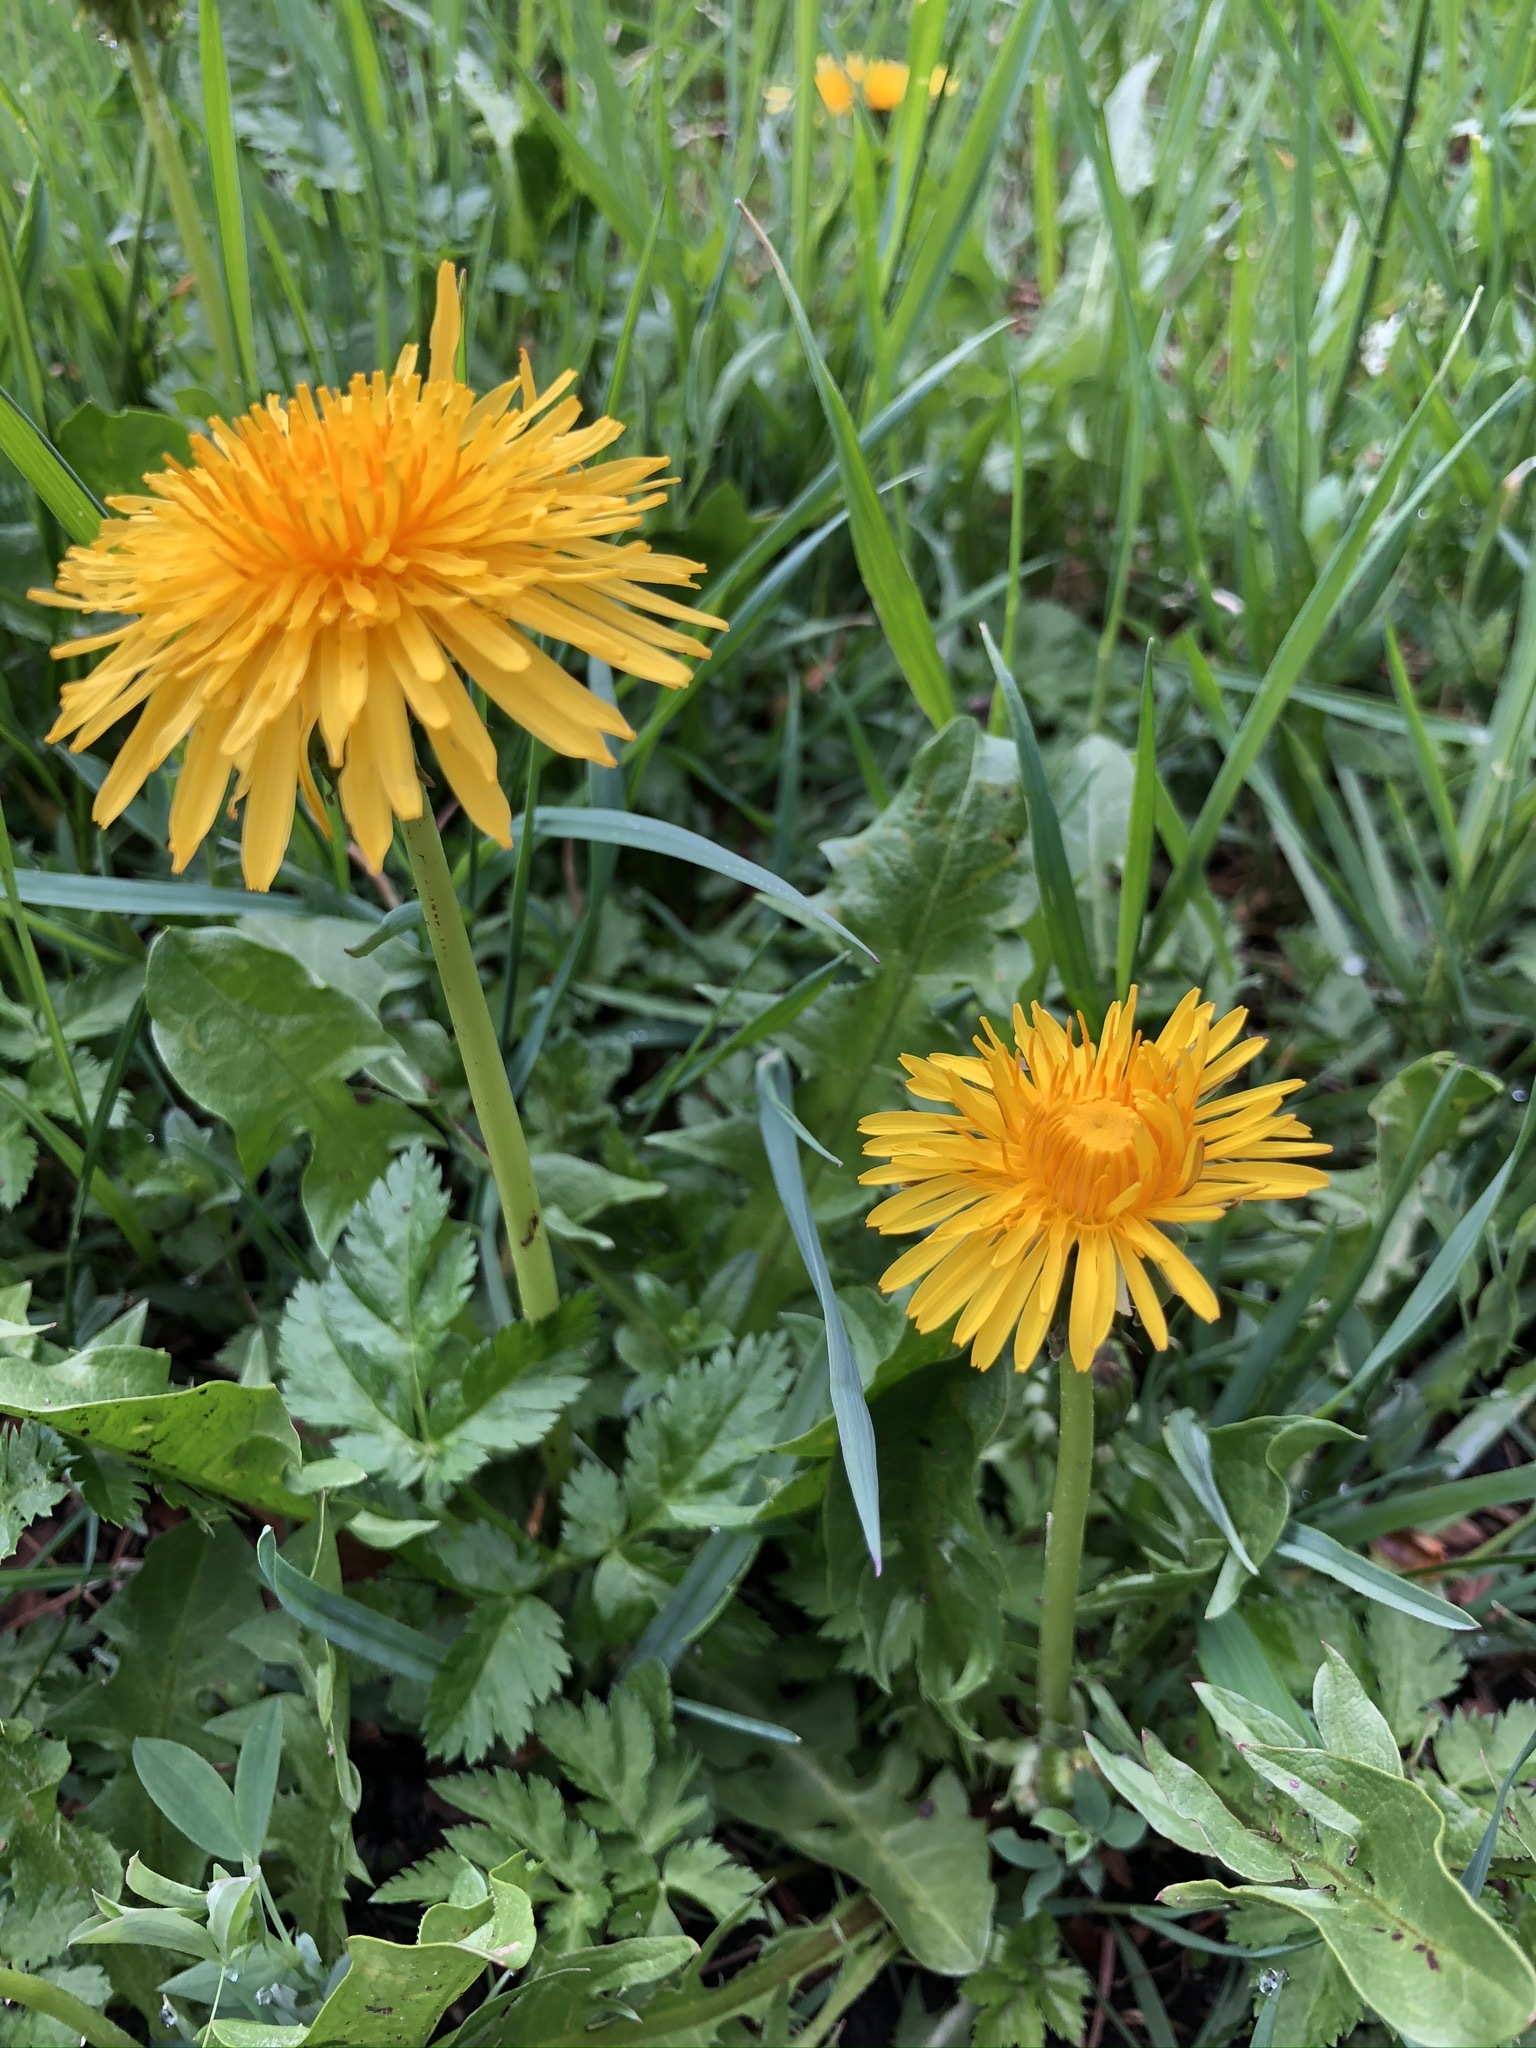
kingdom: Plantae
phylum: Tracheophyta
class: Magnoliopsida
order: Asterales
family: Asteraceae
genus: Taraxacum
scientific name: Taraxacum officinale
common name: Common dandelion
